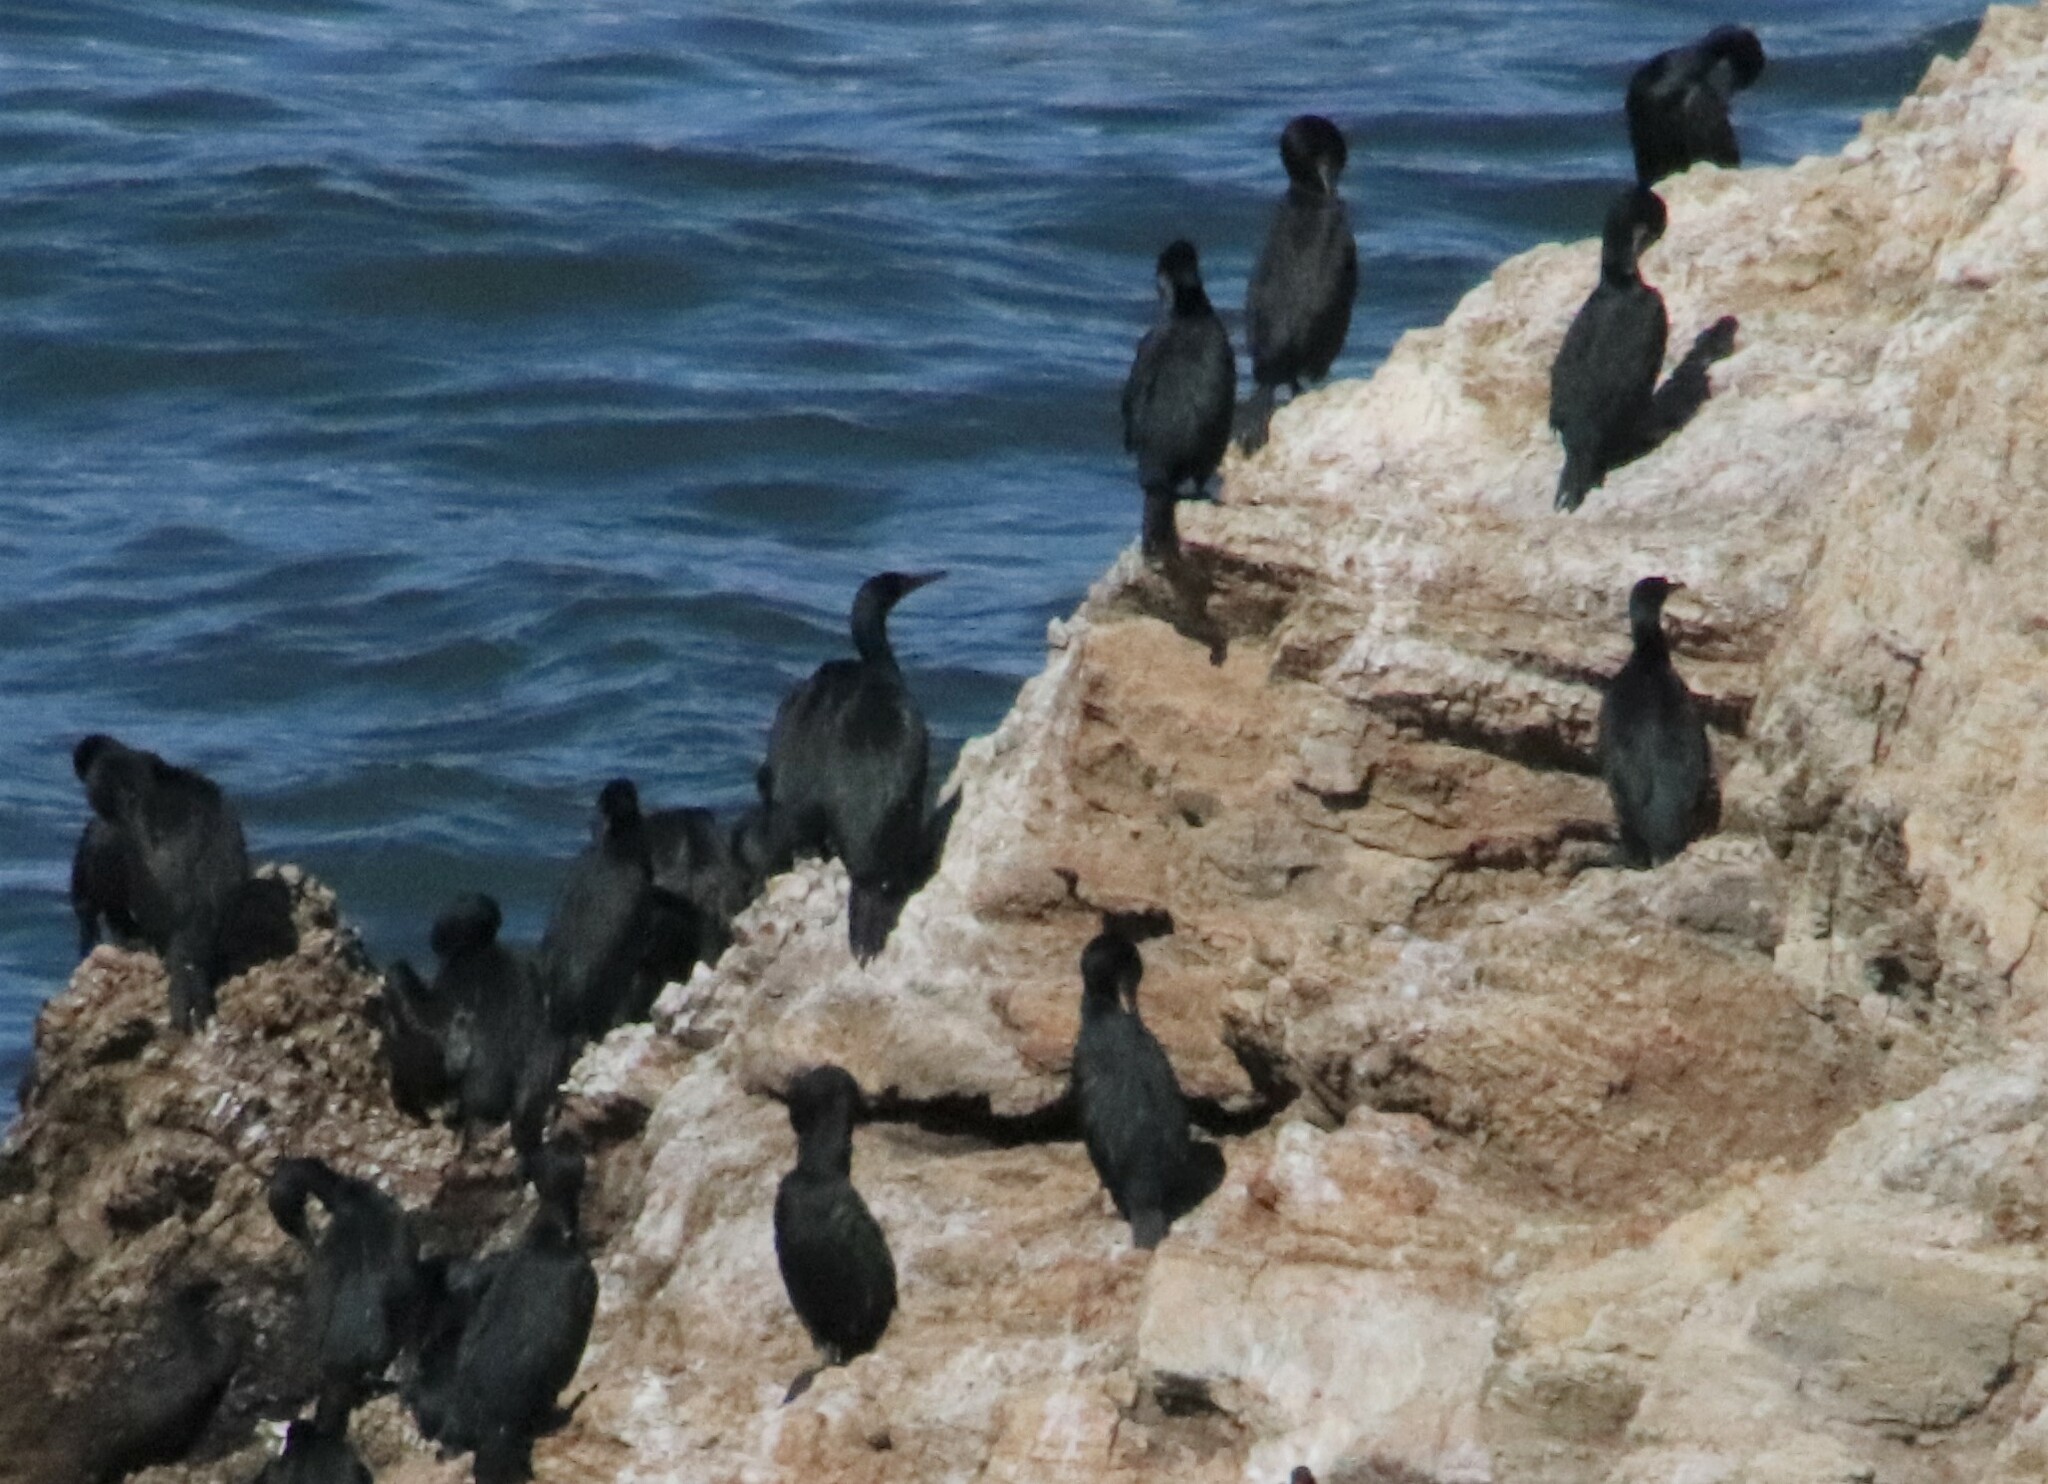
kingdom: Animalia
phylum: Chordata
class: Aves
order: Suliformes
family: Phalacrocoracidae
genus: Urile
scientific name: Urile penicillatus
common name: Brandt's cormorant
